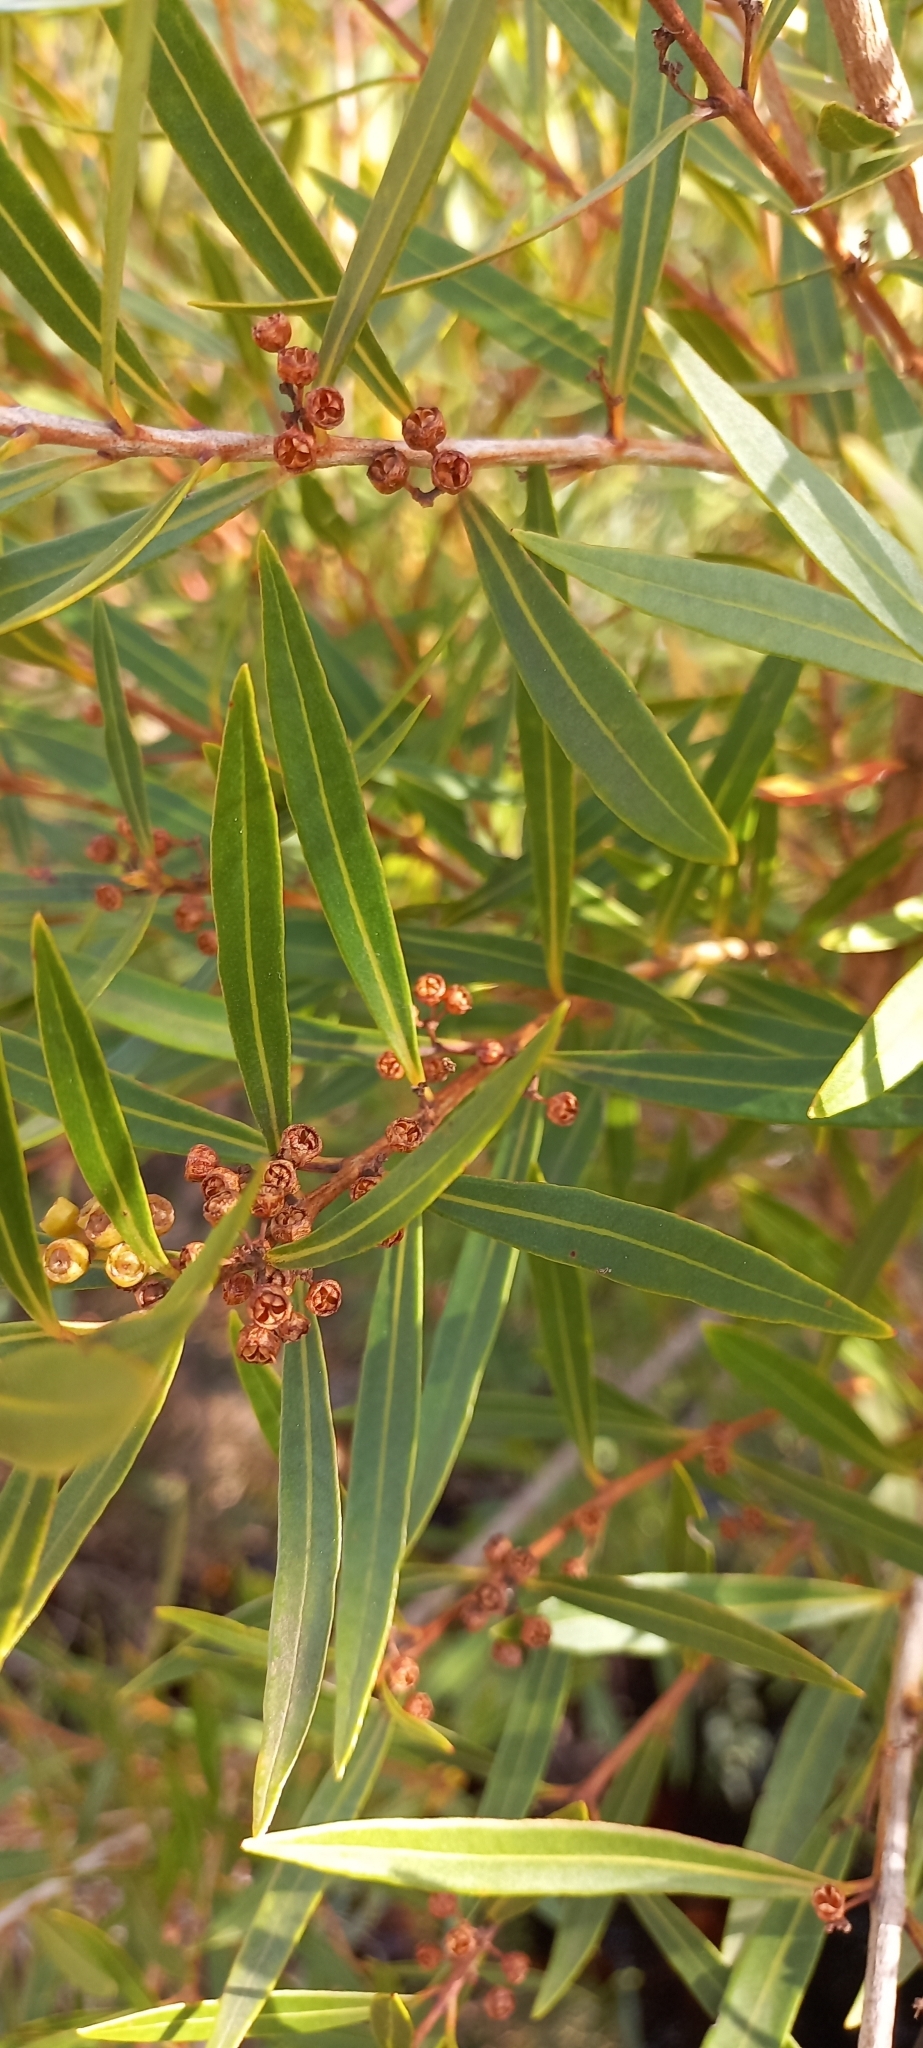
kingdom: Plantae
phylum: Tracheophyta
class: Magnoliopsida
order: Myrtales
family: Myrtaceae
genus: Callistemon
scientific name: Callistemon lanceolatus
